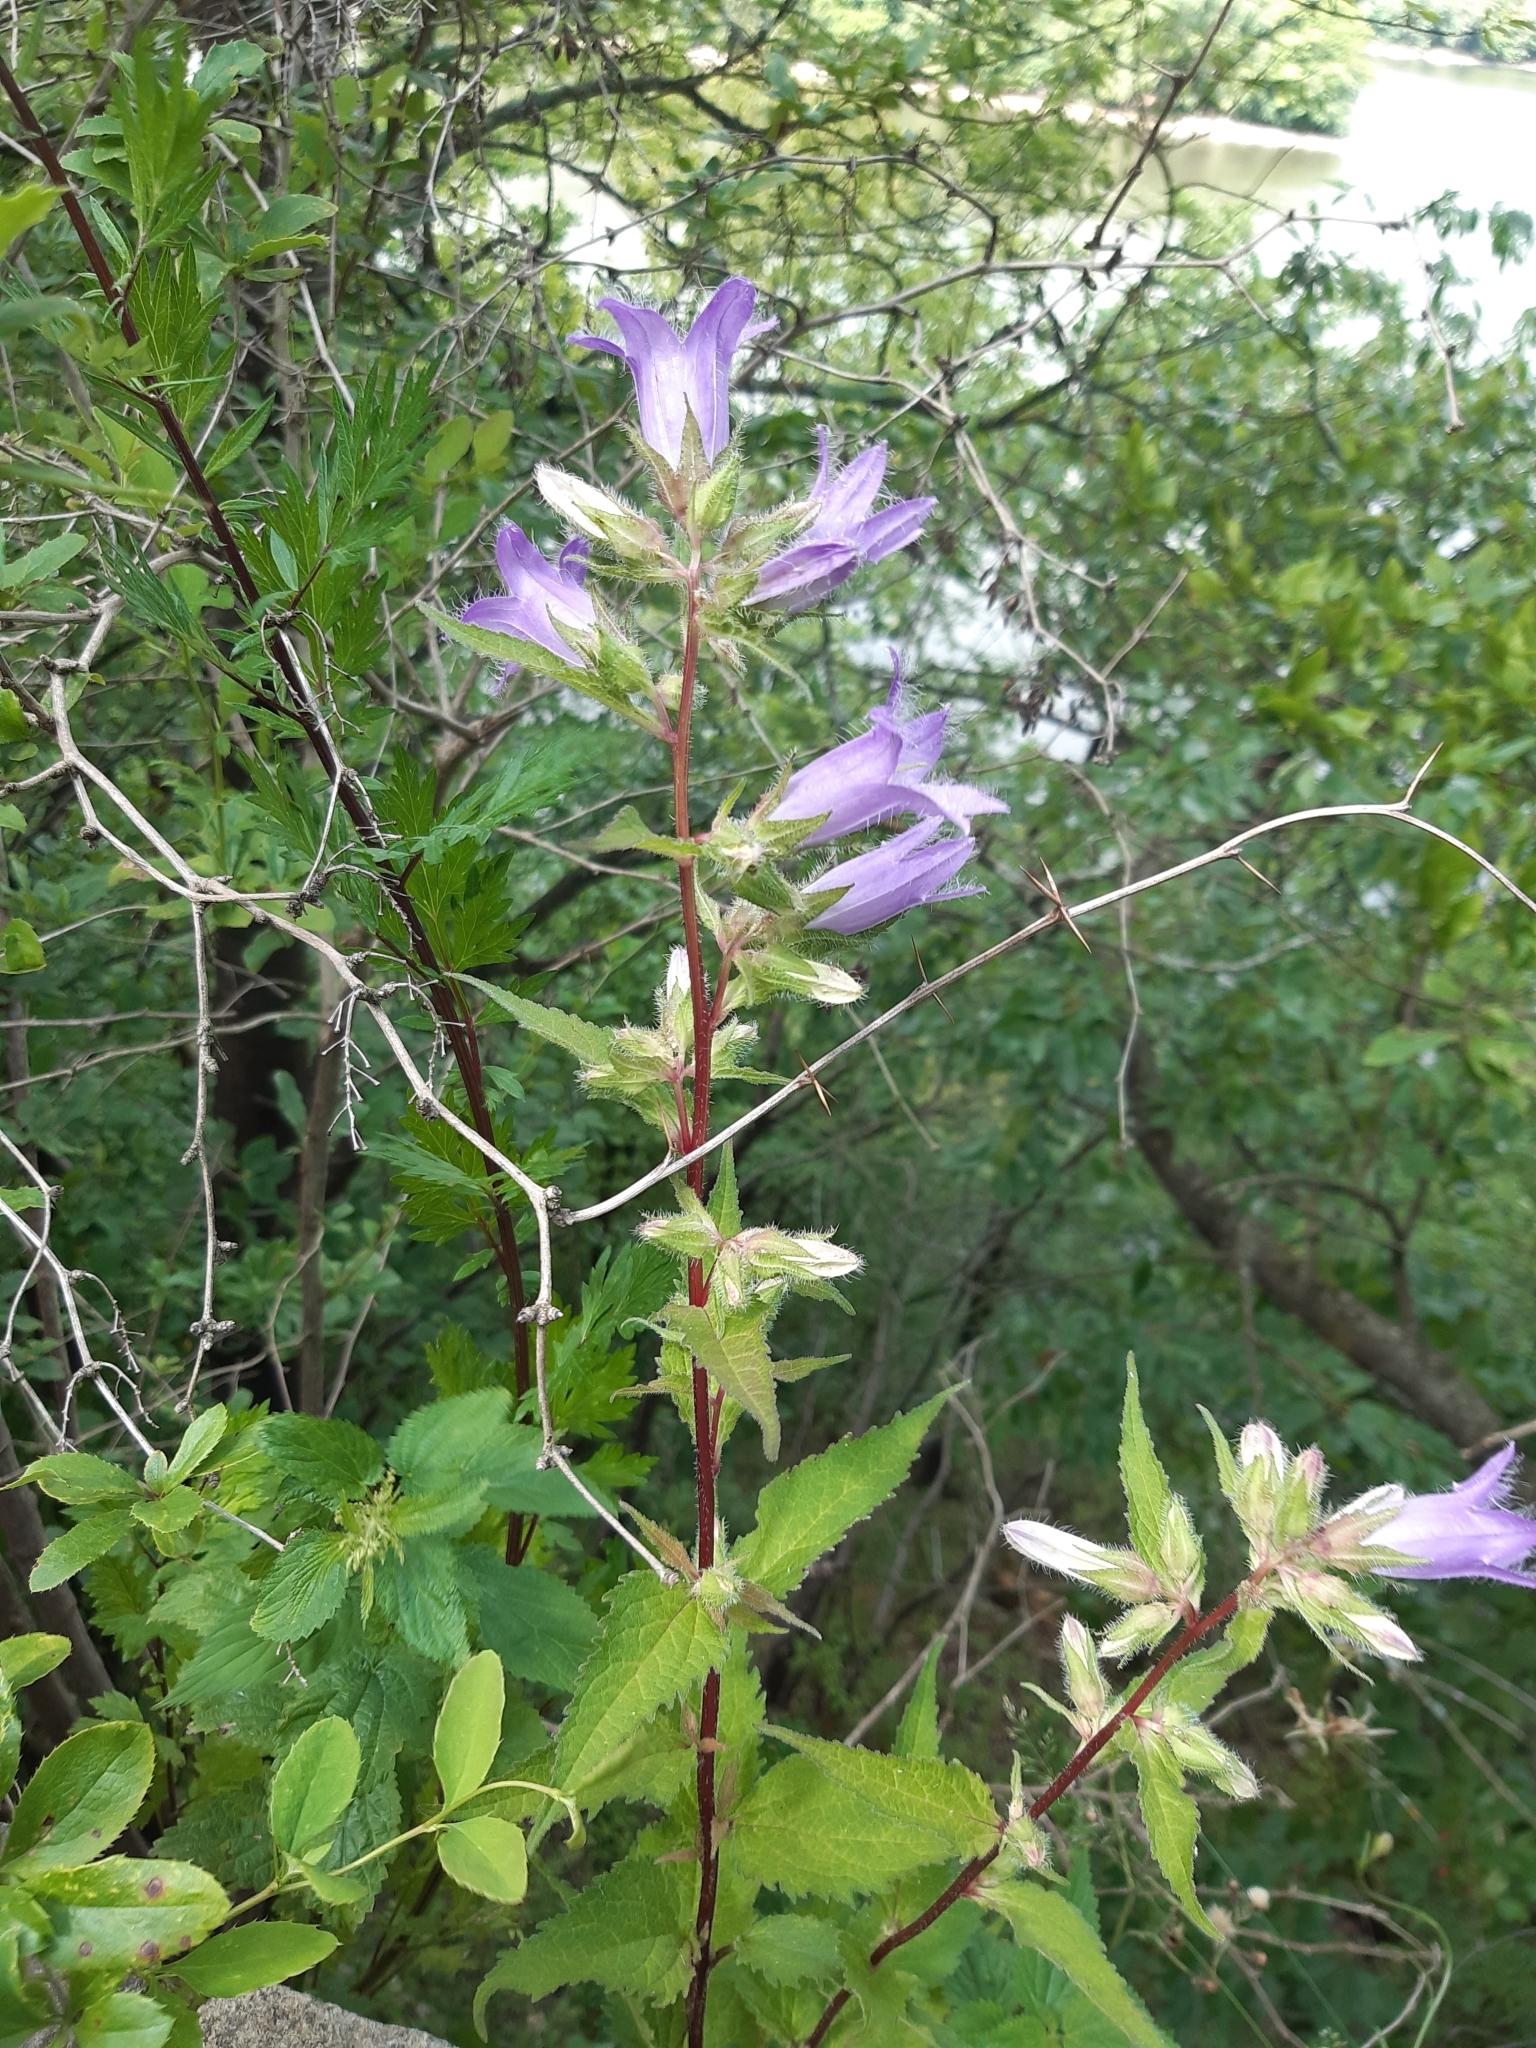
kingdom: Plantae
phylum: Tracheophyta
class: Magnoliopsida
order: Asterales
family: Campanulaceae
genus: Campanula
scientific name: Campanula trachelium
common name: Nettle-leaved bellflower
